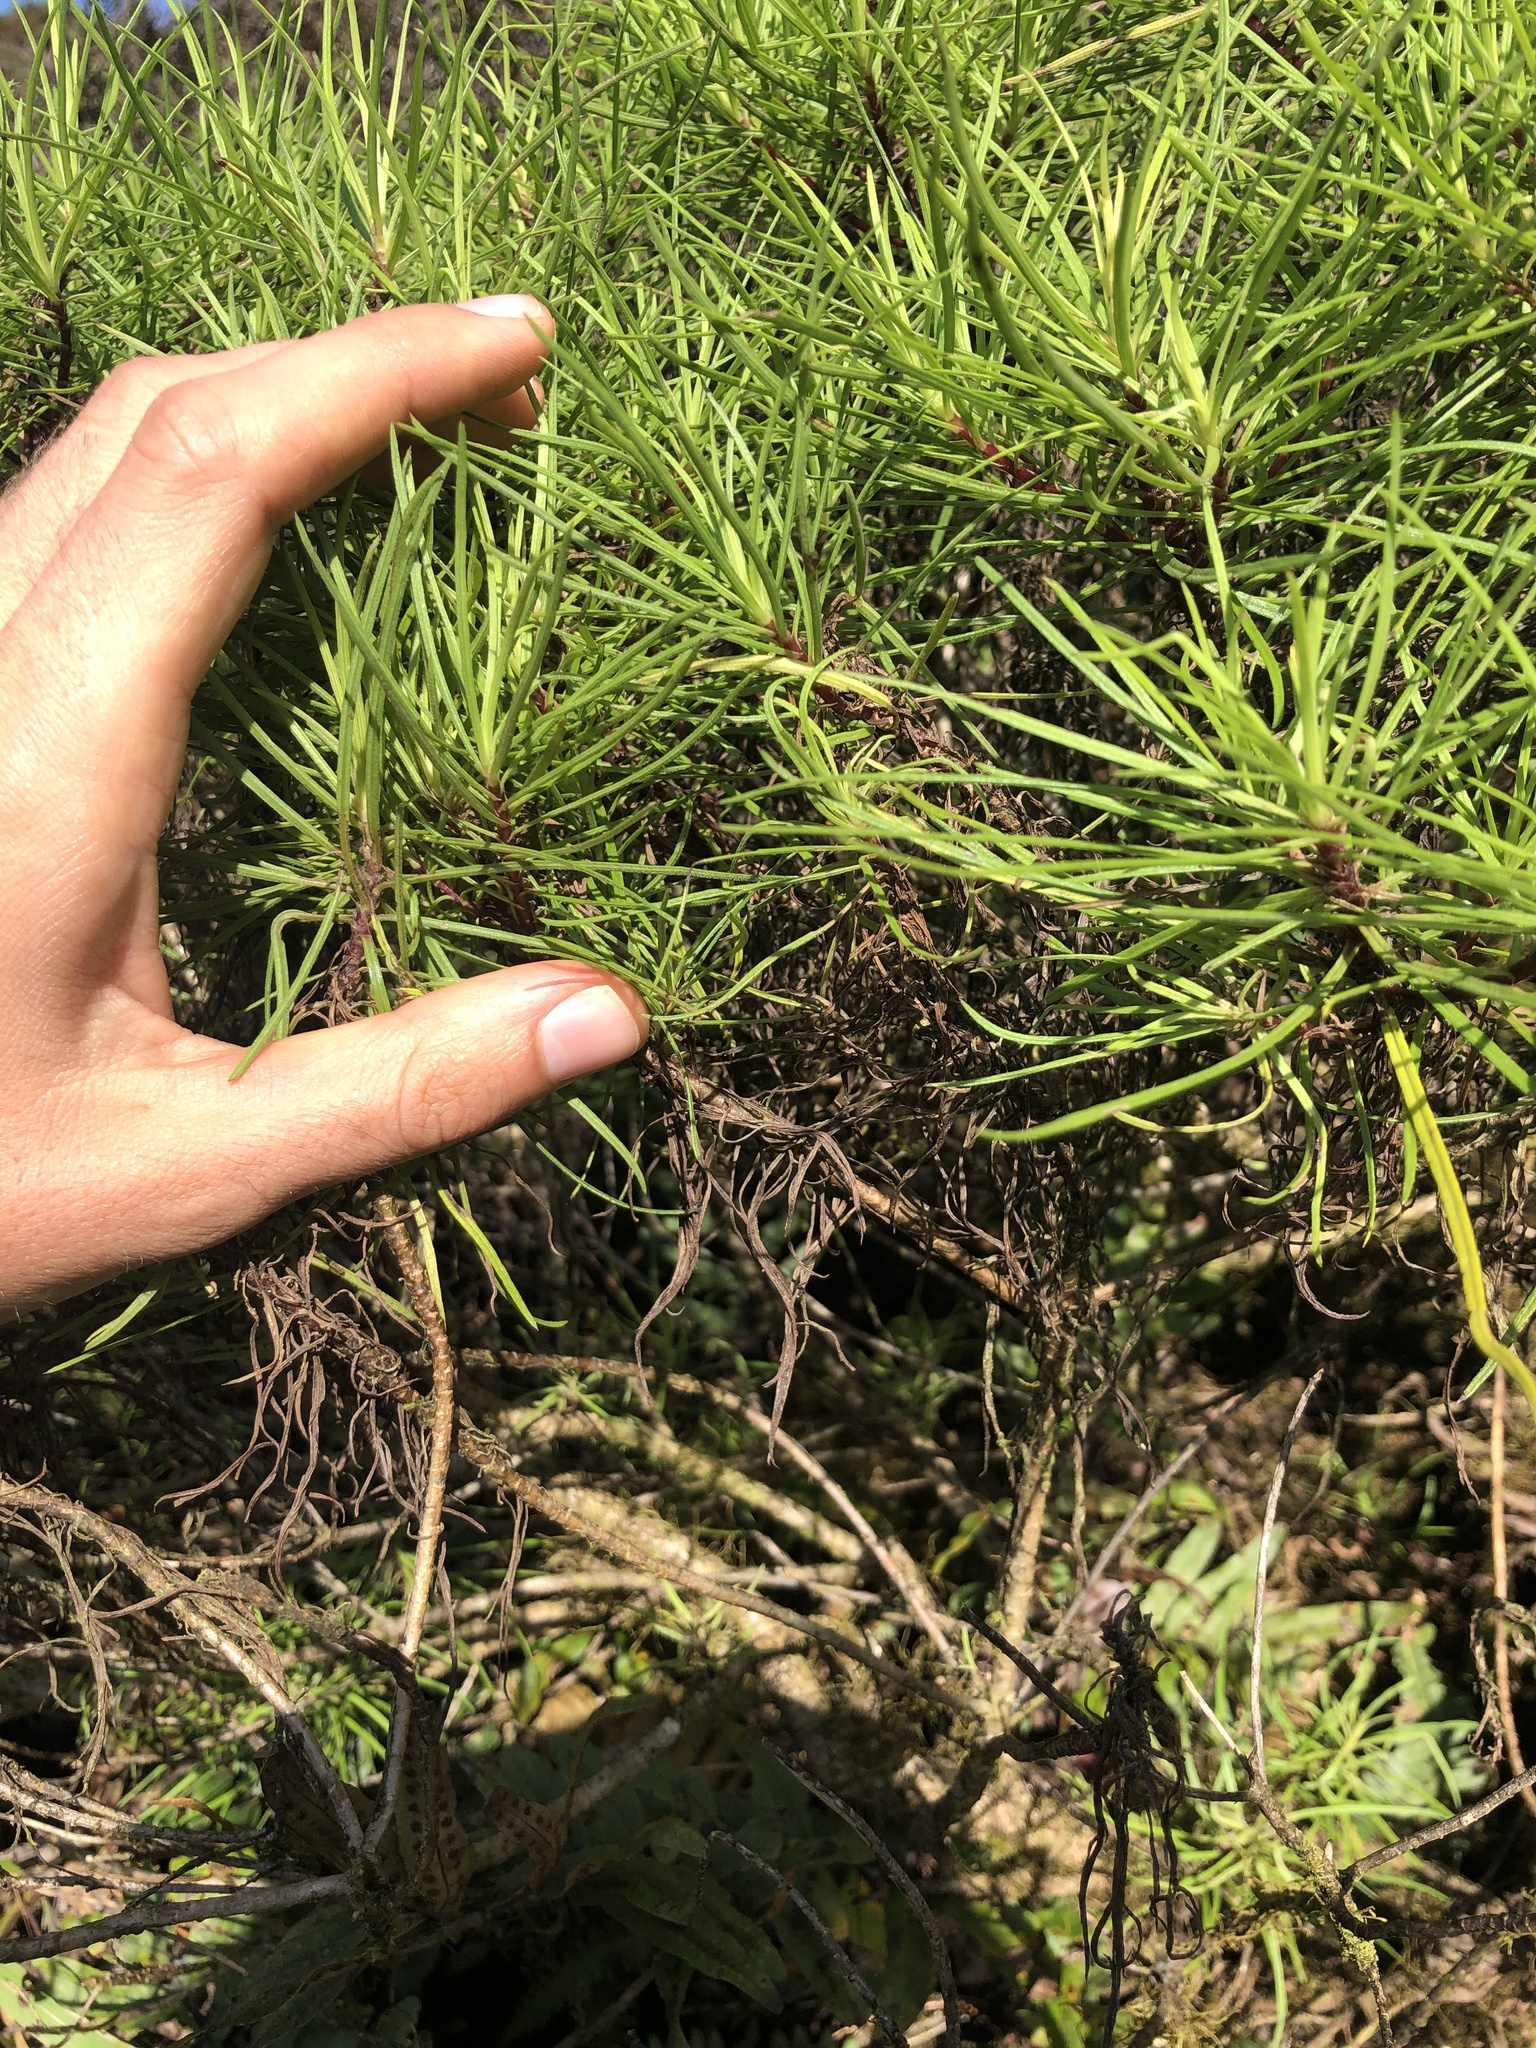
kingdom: Plantae
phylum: Tracheophyta
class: Magnoliopsida
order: Asterales
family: Asteraceae
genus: Erigeron
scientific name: Erigeron tenuifolius
